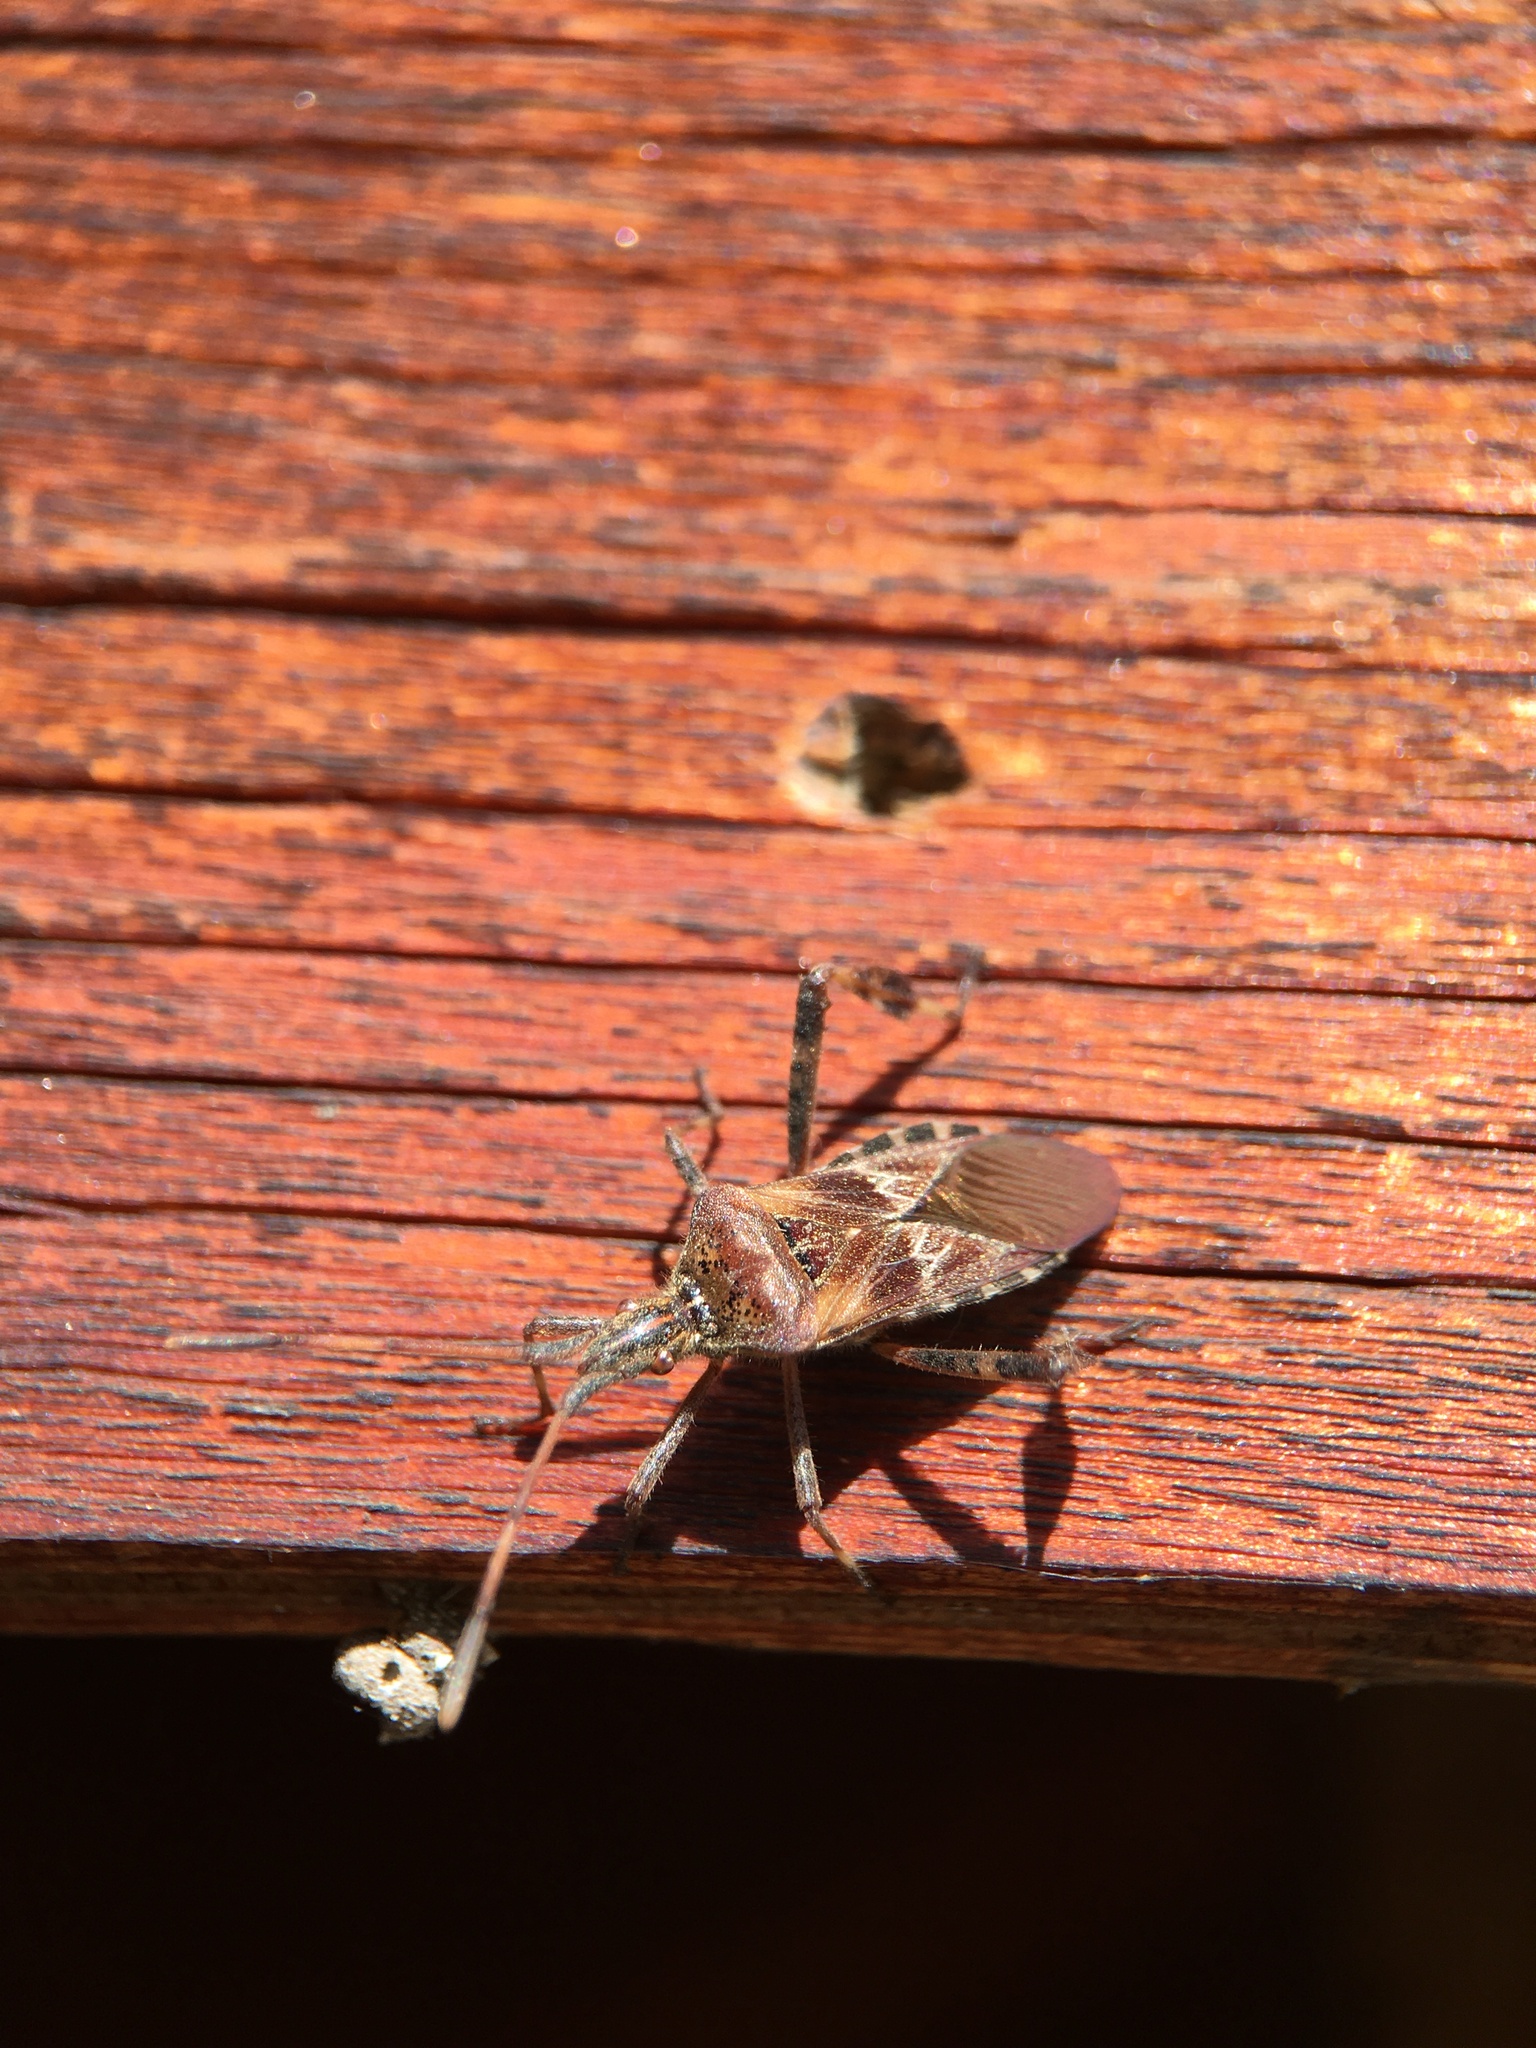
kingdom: Animalia
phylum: Arthropoda
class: Insecta
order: Hemiptera
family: Coreidae
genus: Leptoglossus
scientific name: Leptoglossus occidentalis
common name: Western conifer-seed bug
